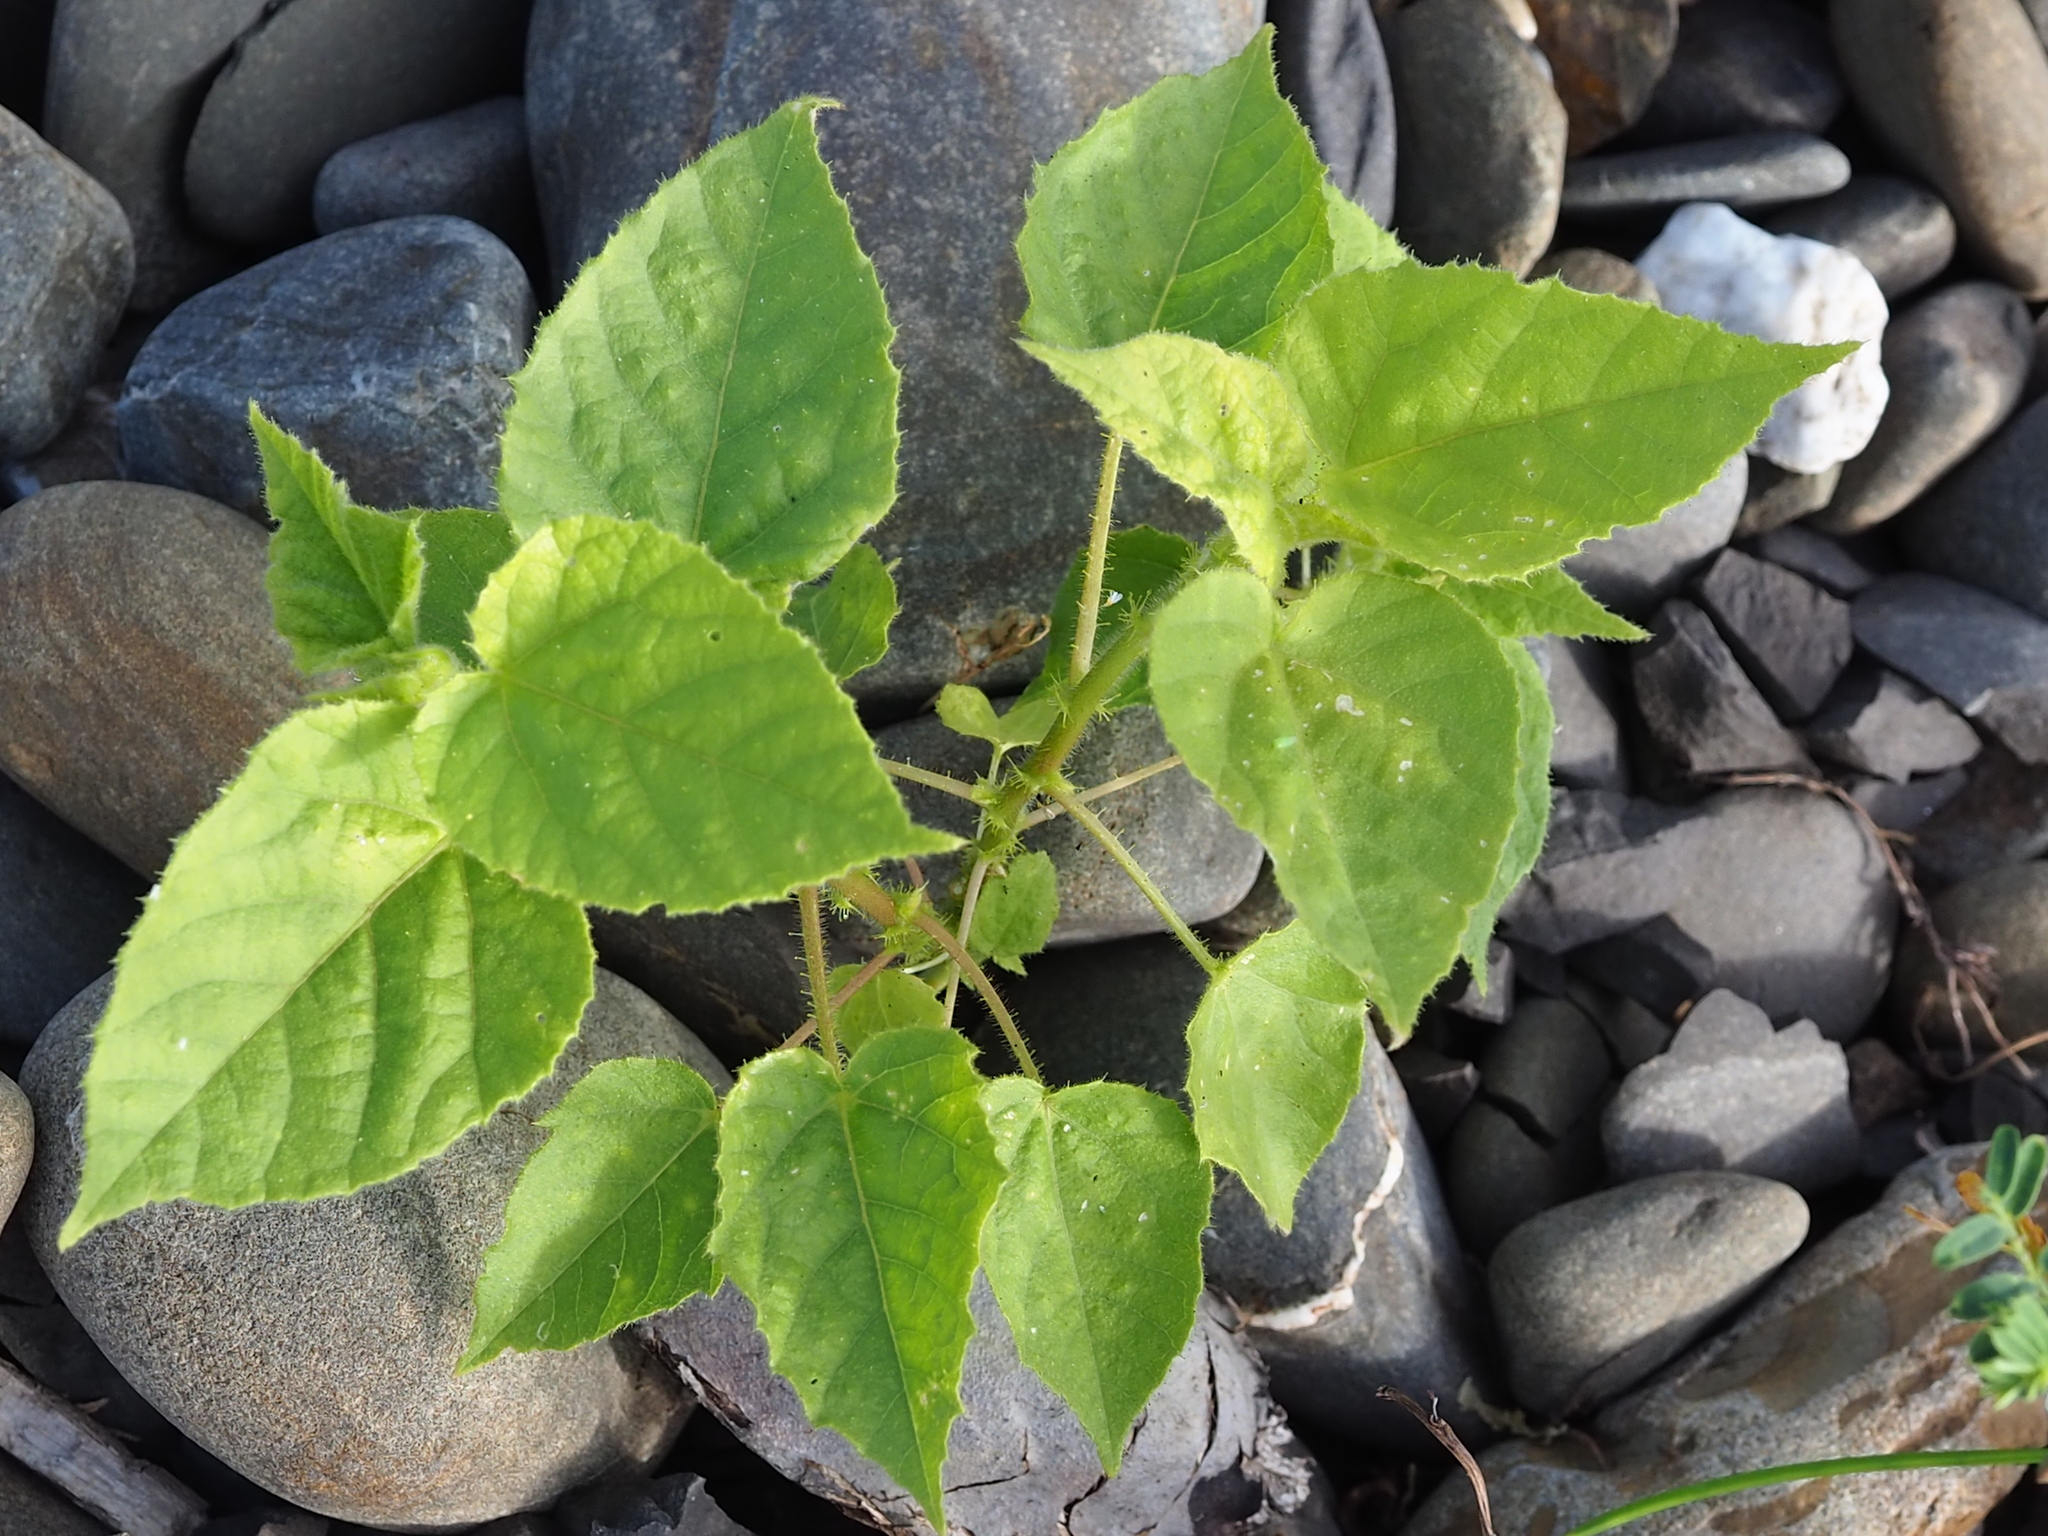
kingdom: Plantae
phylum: Tracheophyta
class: Magnoliopsida
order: Malpighiales
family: Passifloraceae
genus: Passiflora
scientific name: Passiflora vesicaria
